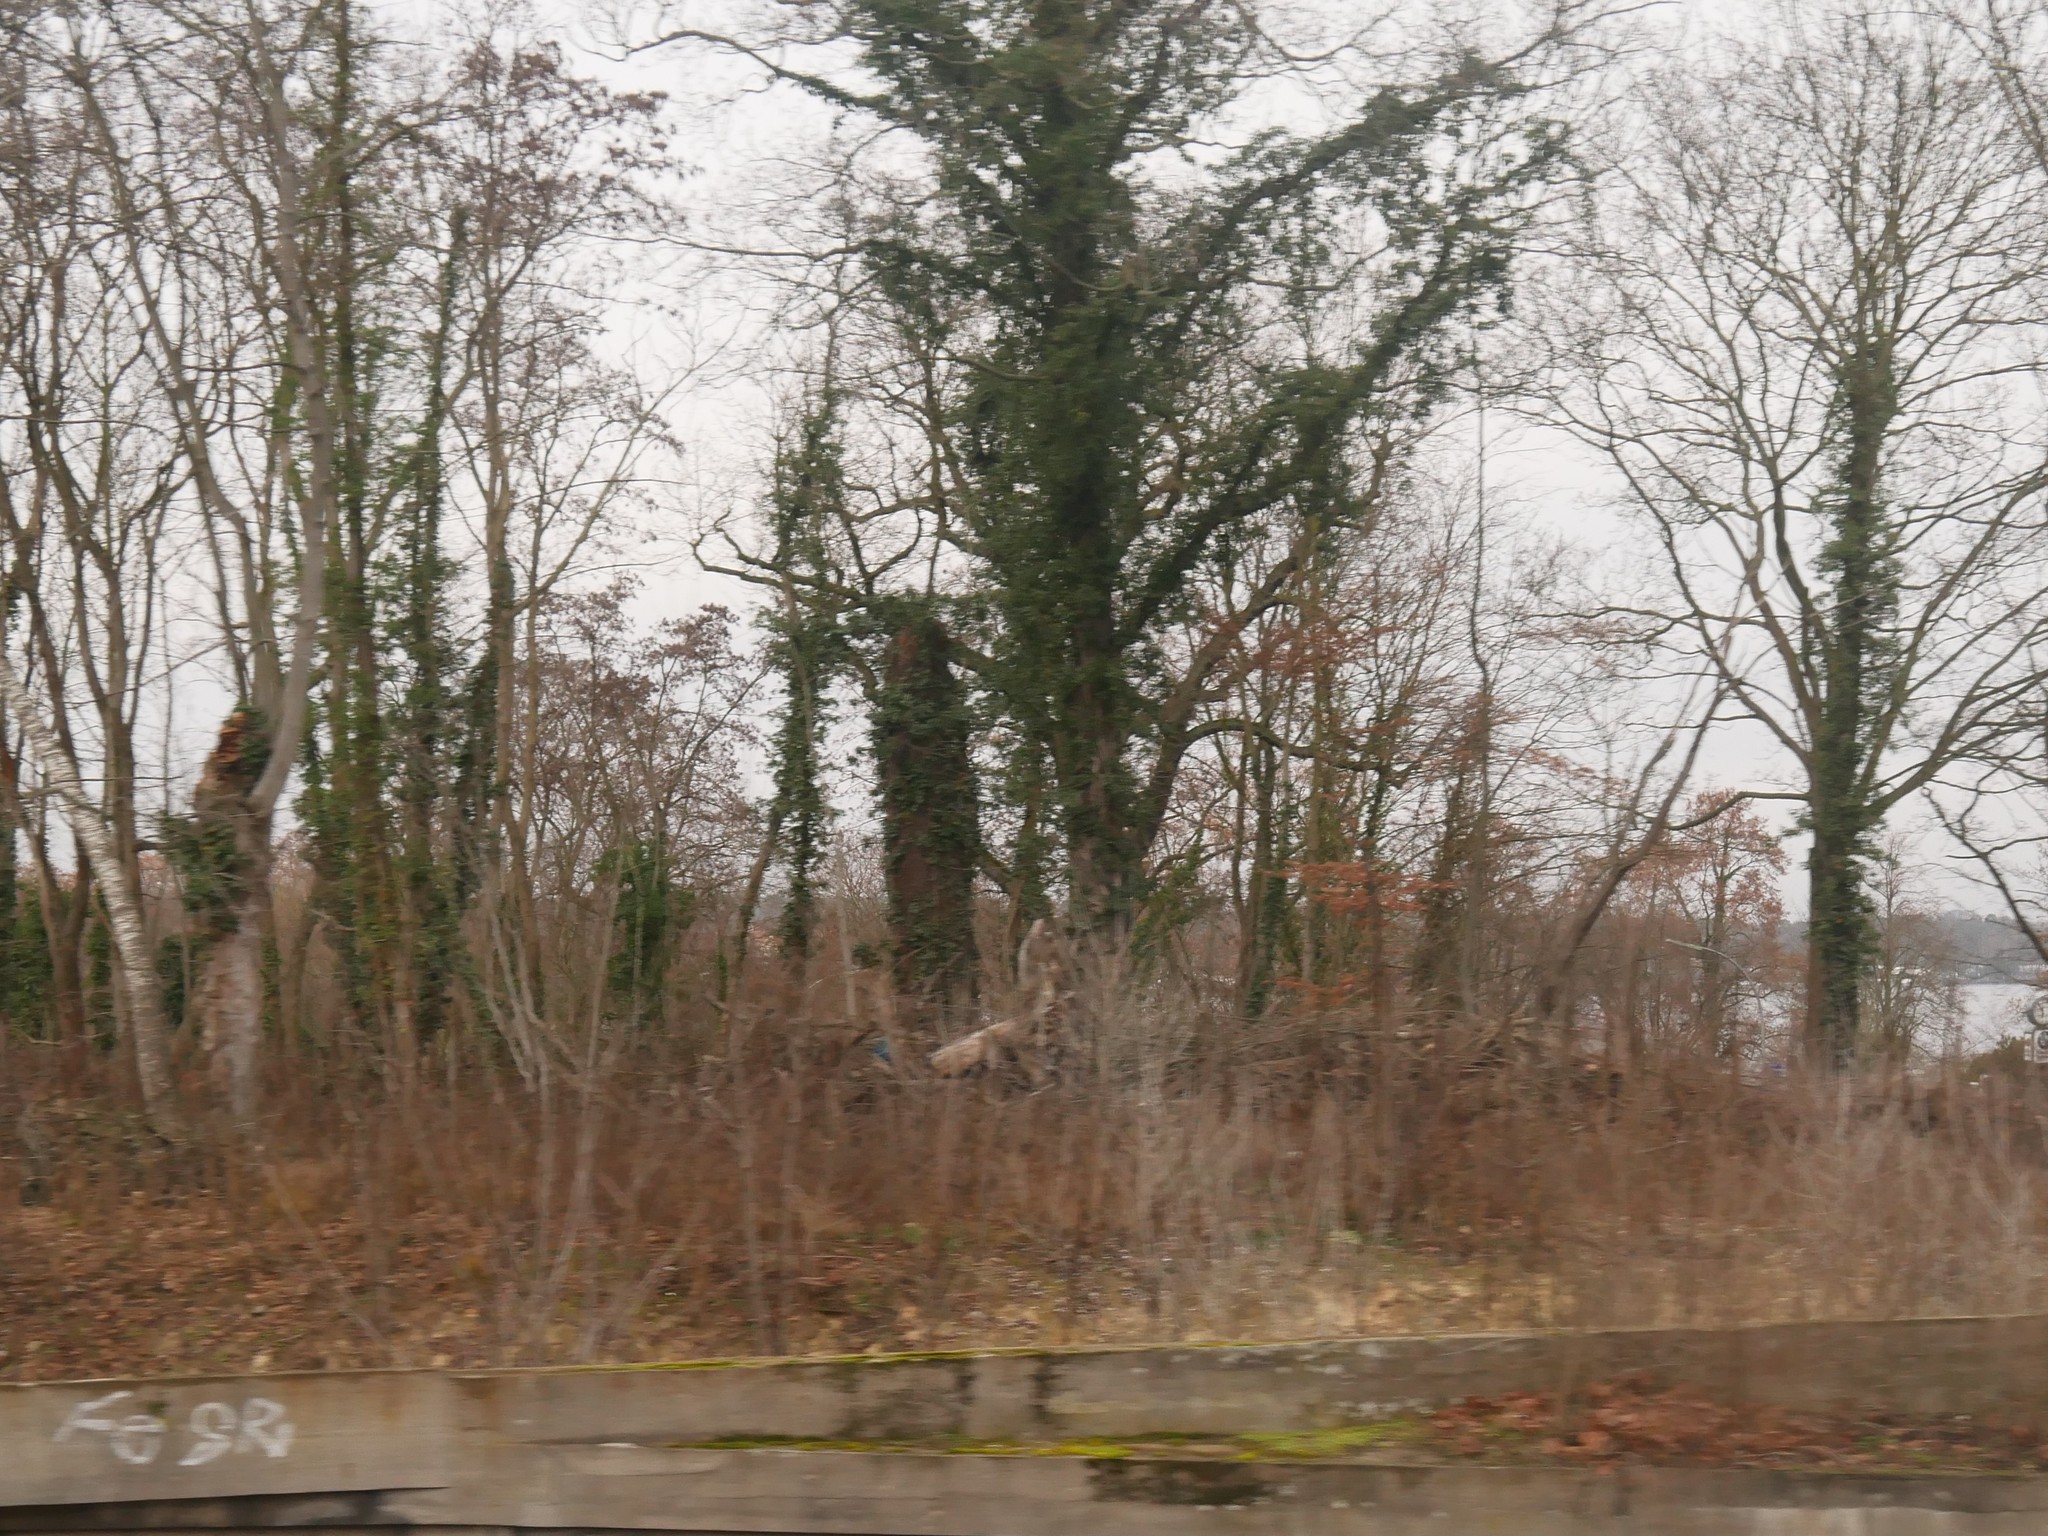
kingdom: Plantae
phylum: Tracheophyta
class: Magnoliopsida
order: Apiales
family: Araliaceae
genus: Hedera
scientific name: Hedera helix
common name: Ivy
